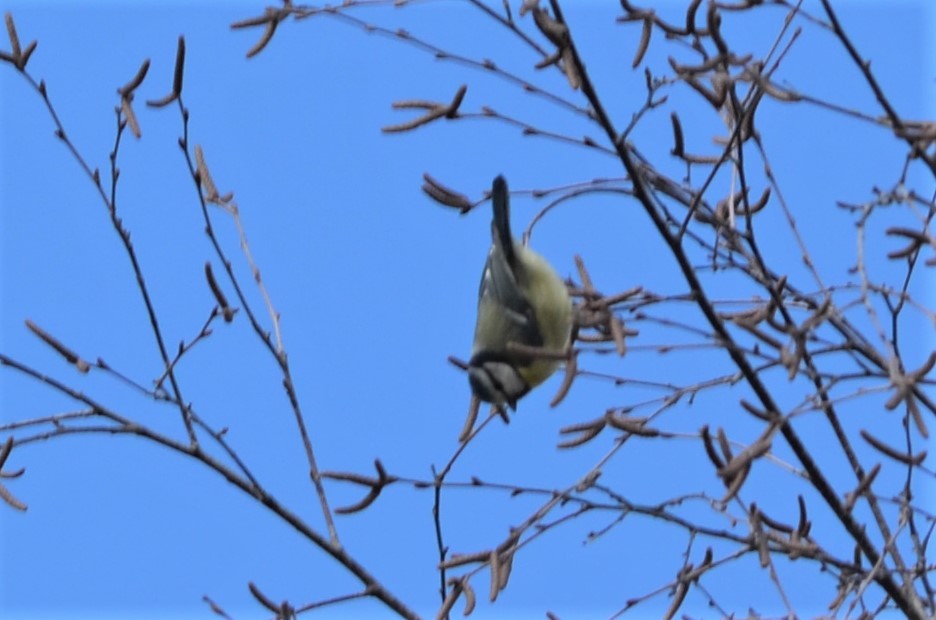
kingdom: Animalia
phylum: Chordata
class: Aves
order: Passeriformes
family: Paridae
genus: Cyanistes
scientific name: Cyanistes caeruleus
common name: Eurasian blue tit
